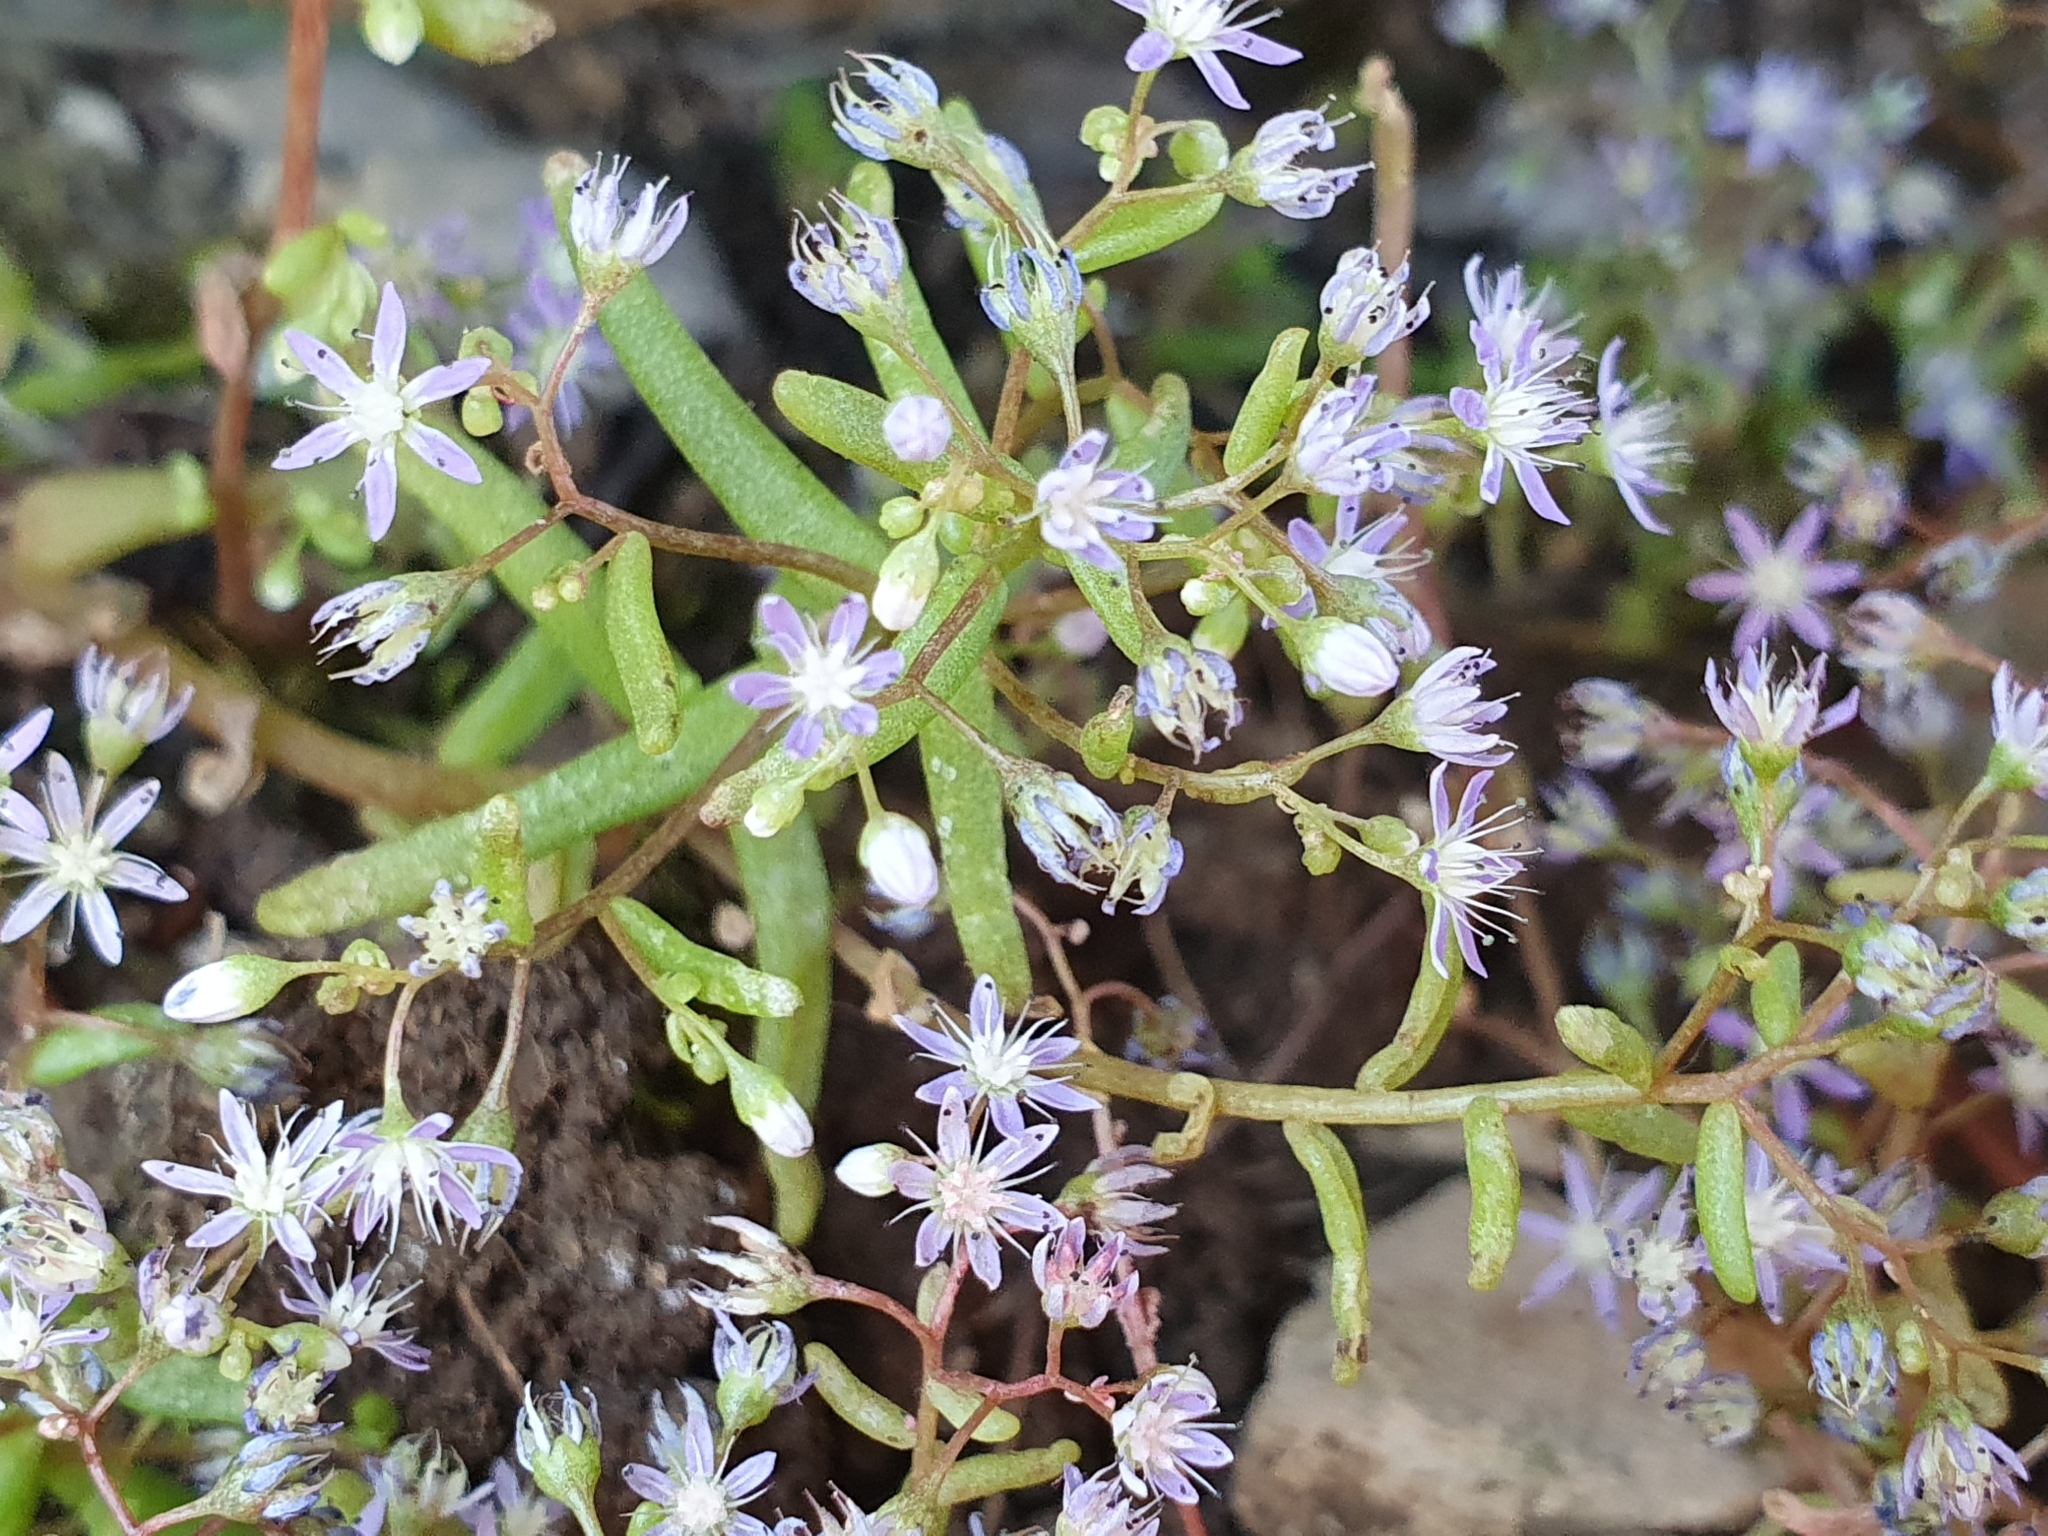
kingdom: Plantae
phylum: Tracheophyta
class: Magnoliopsida
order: Saxifragales
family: Crassulaceae
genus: Sedum
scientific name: Sedum caeruleum
